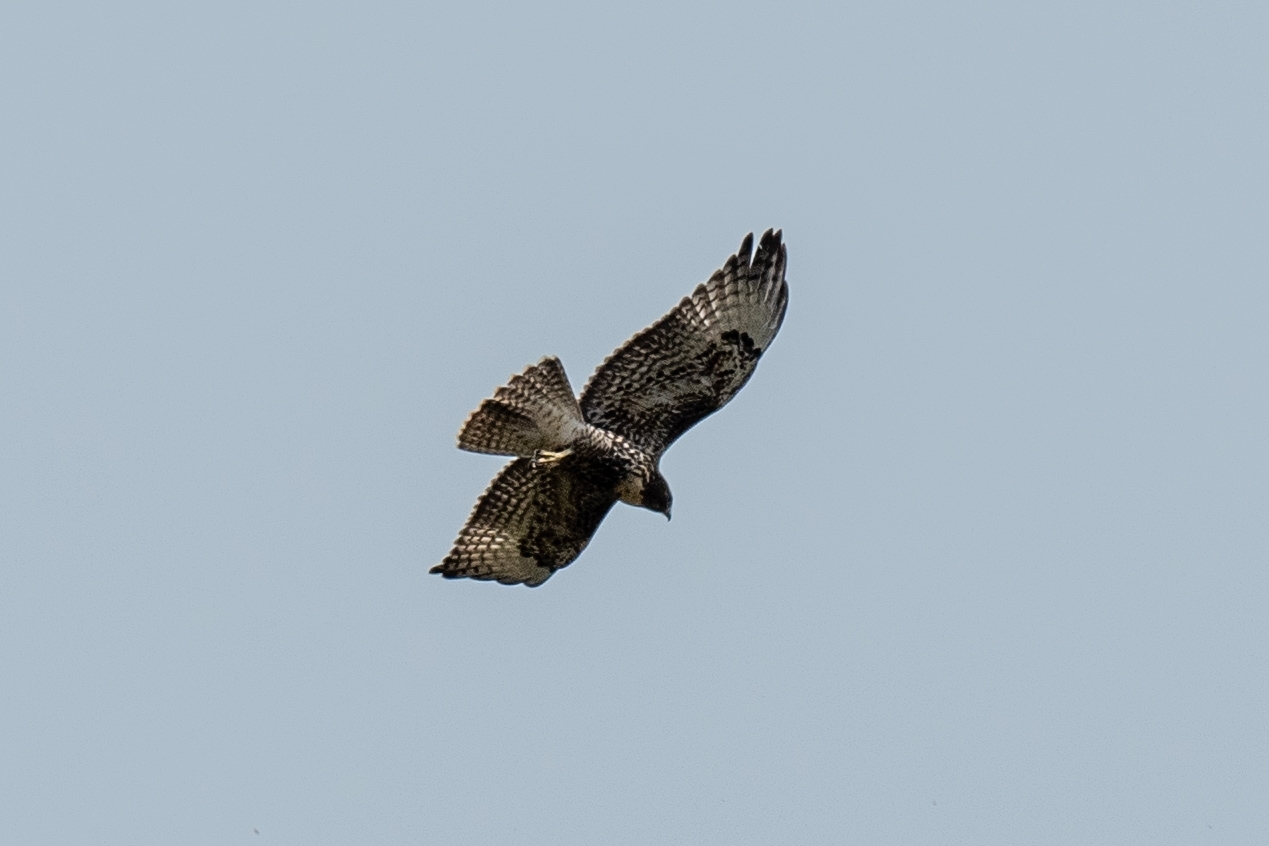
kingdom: Animalia
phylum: Chordata
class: Aves
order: Accipitriformes
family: Accipitridae
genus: Buteo
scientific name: Buteo jamaicensis
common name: Red-tailed hawk
